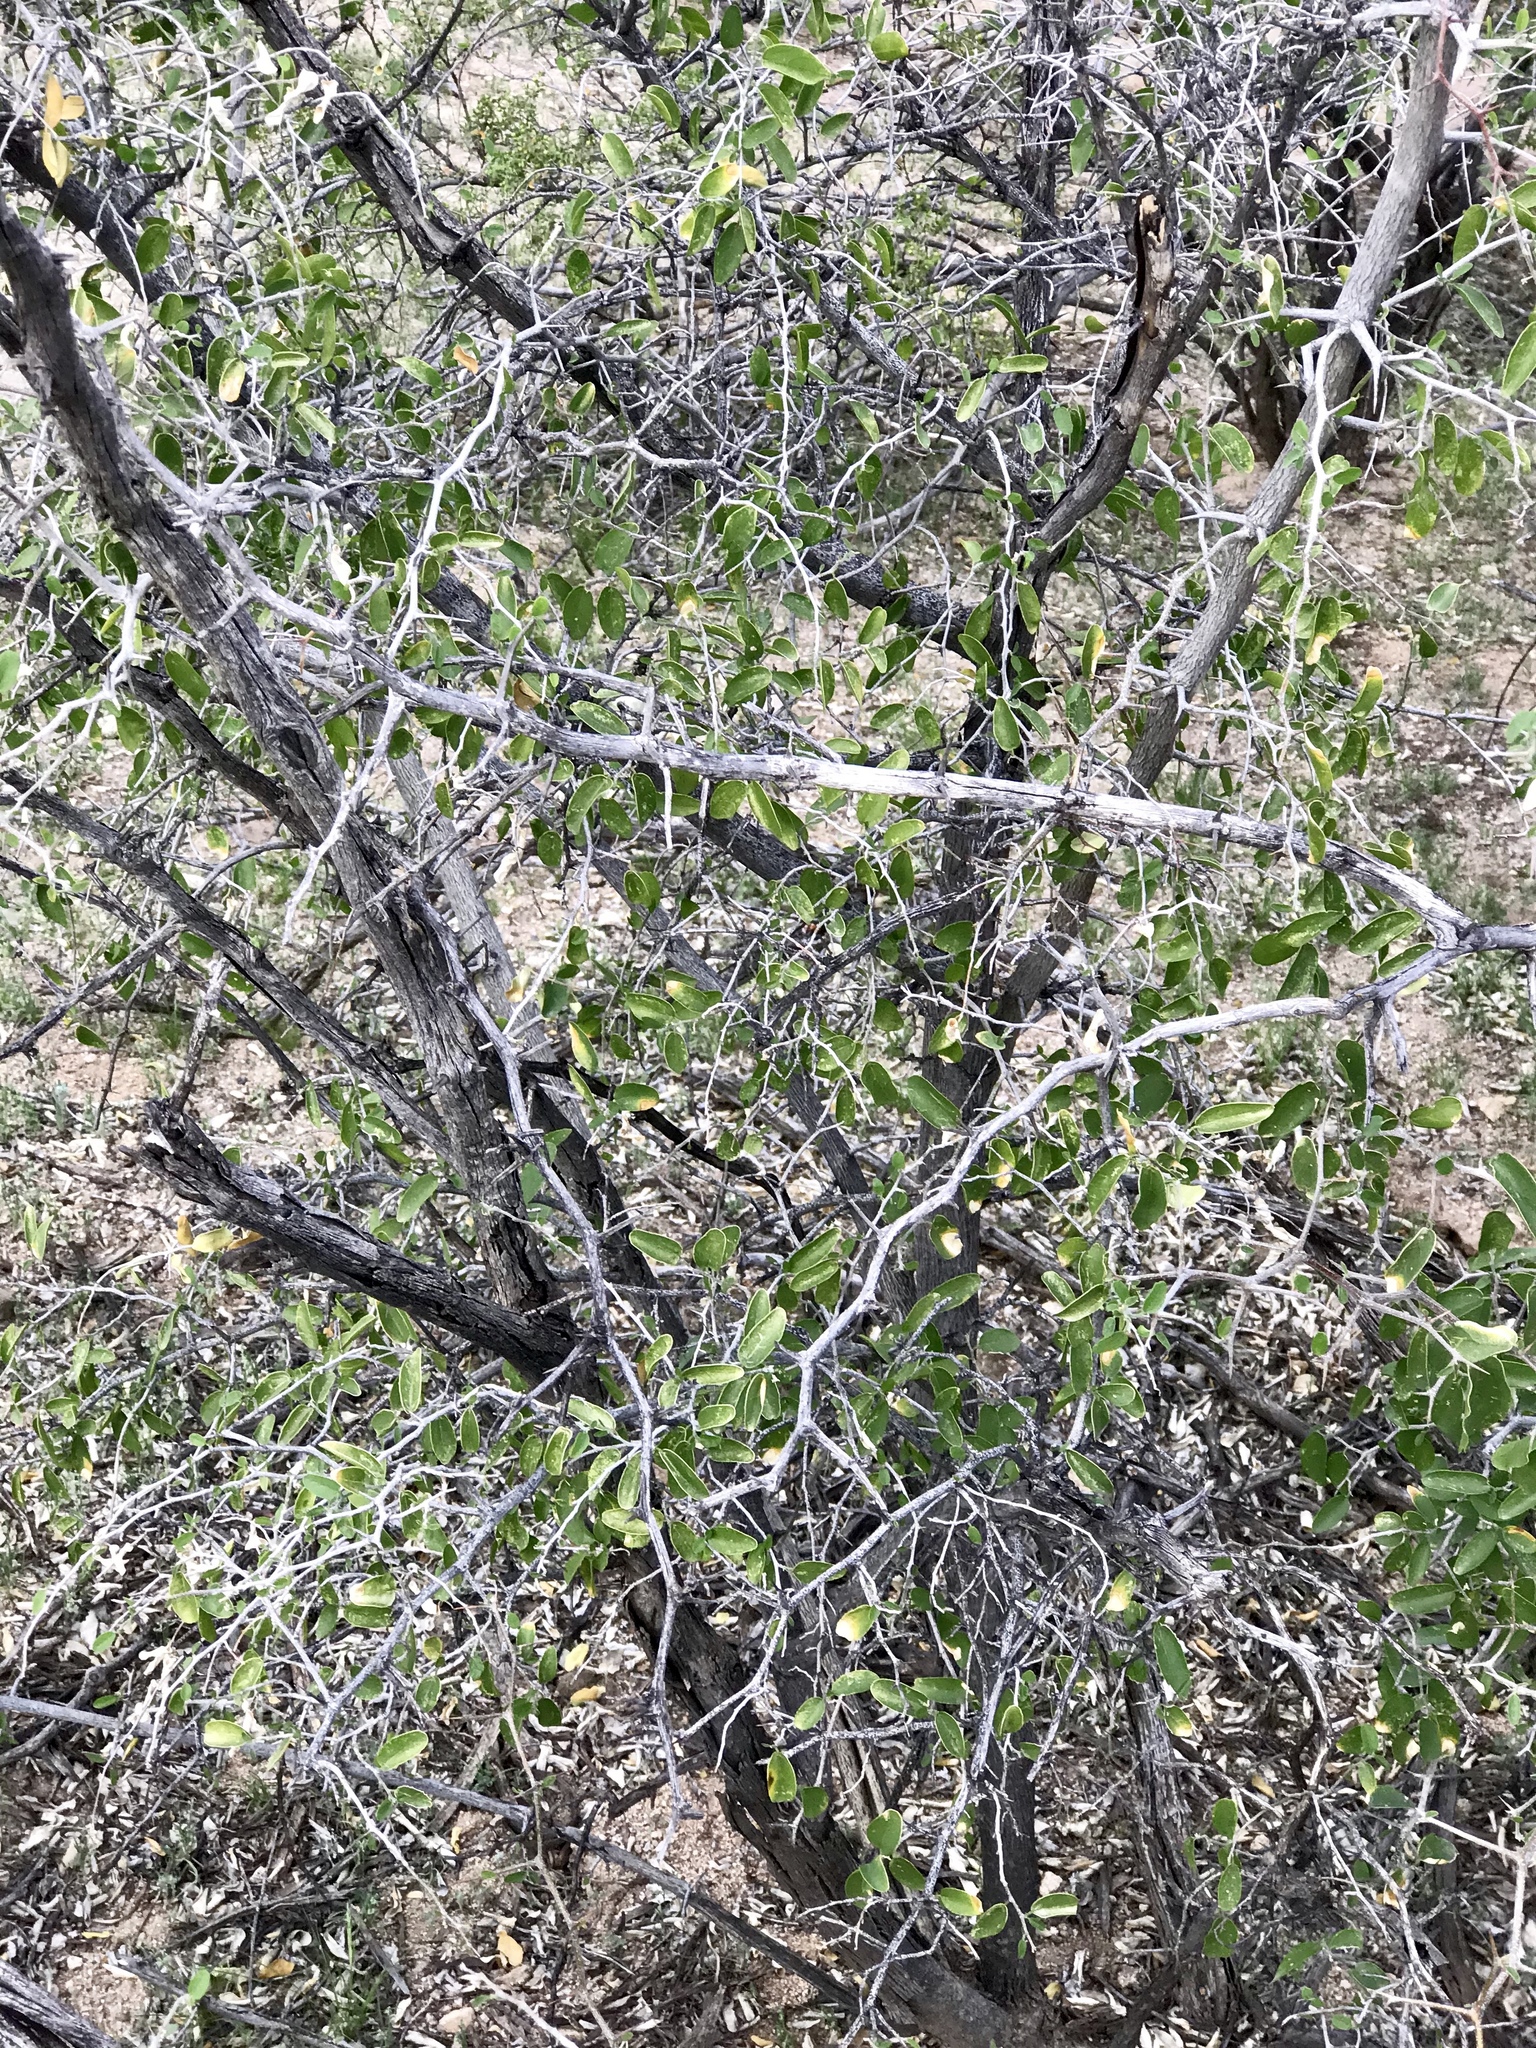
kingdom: Plantae
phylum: Tracheophyta
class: Magnoliopsida
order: Rosales
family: Cannabaceae
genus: Celtis
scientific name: Celtis pallida
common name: Desert hackberry
